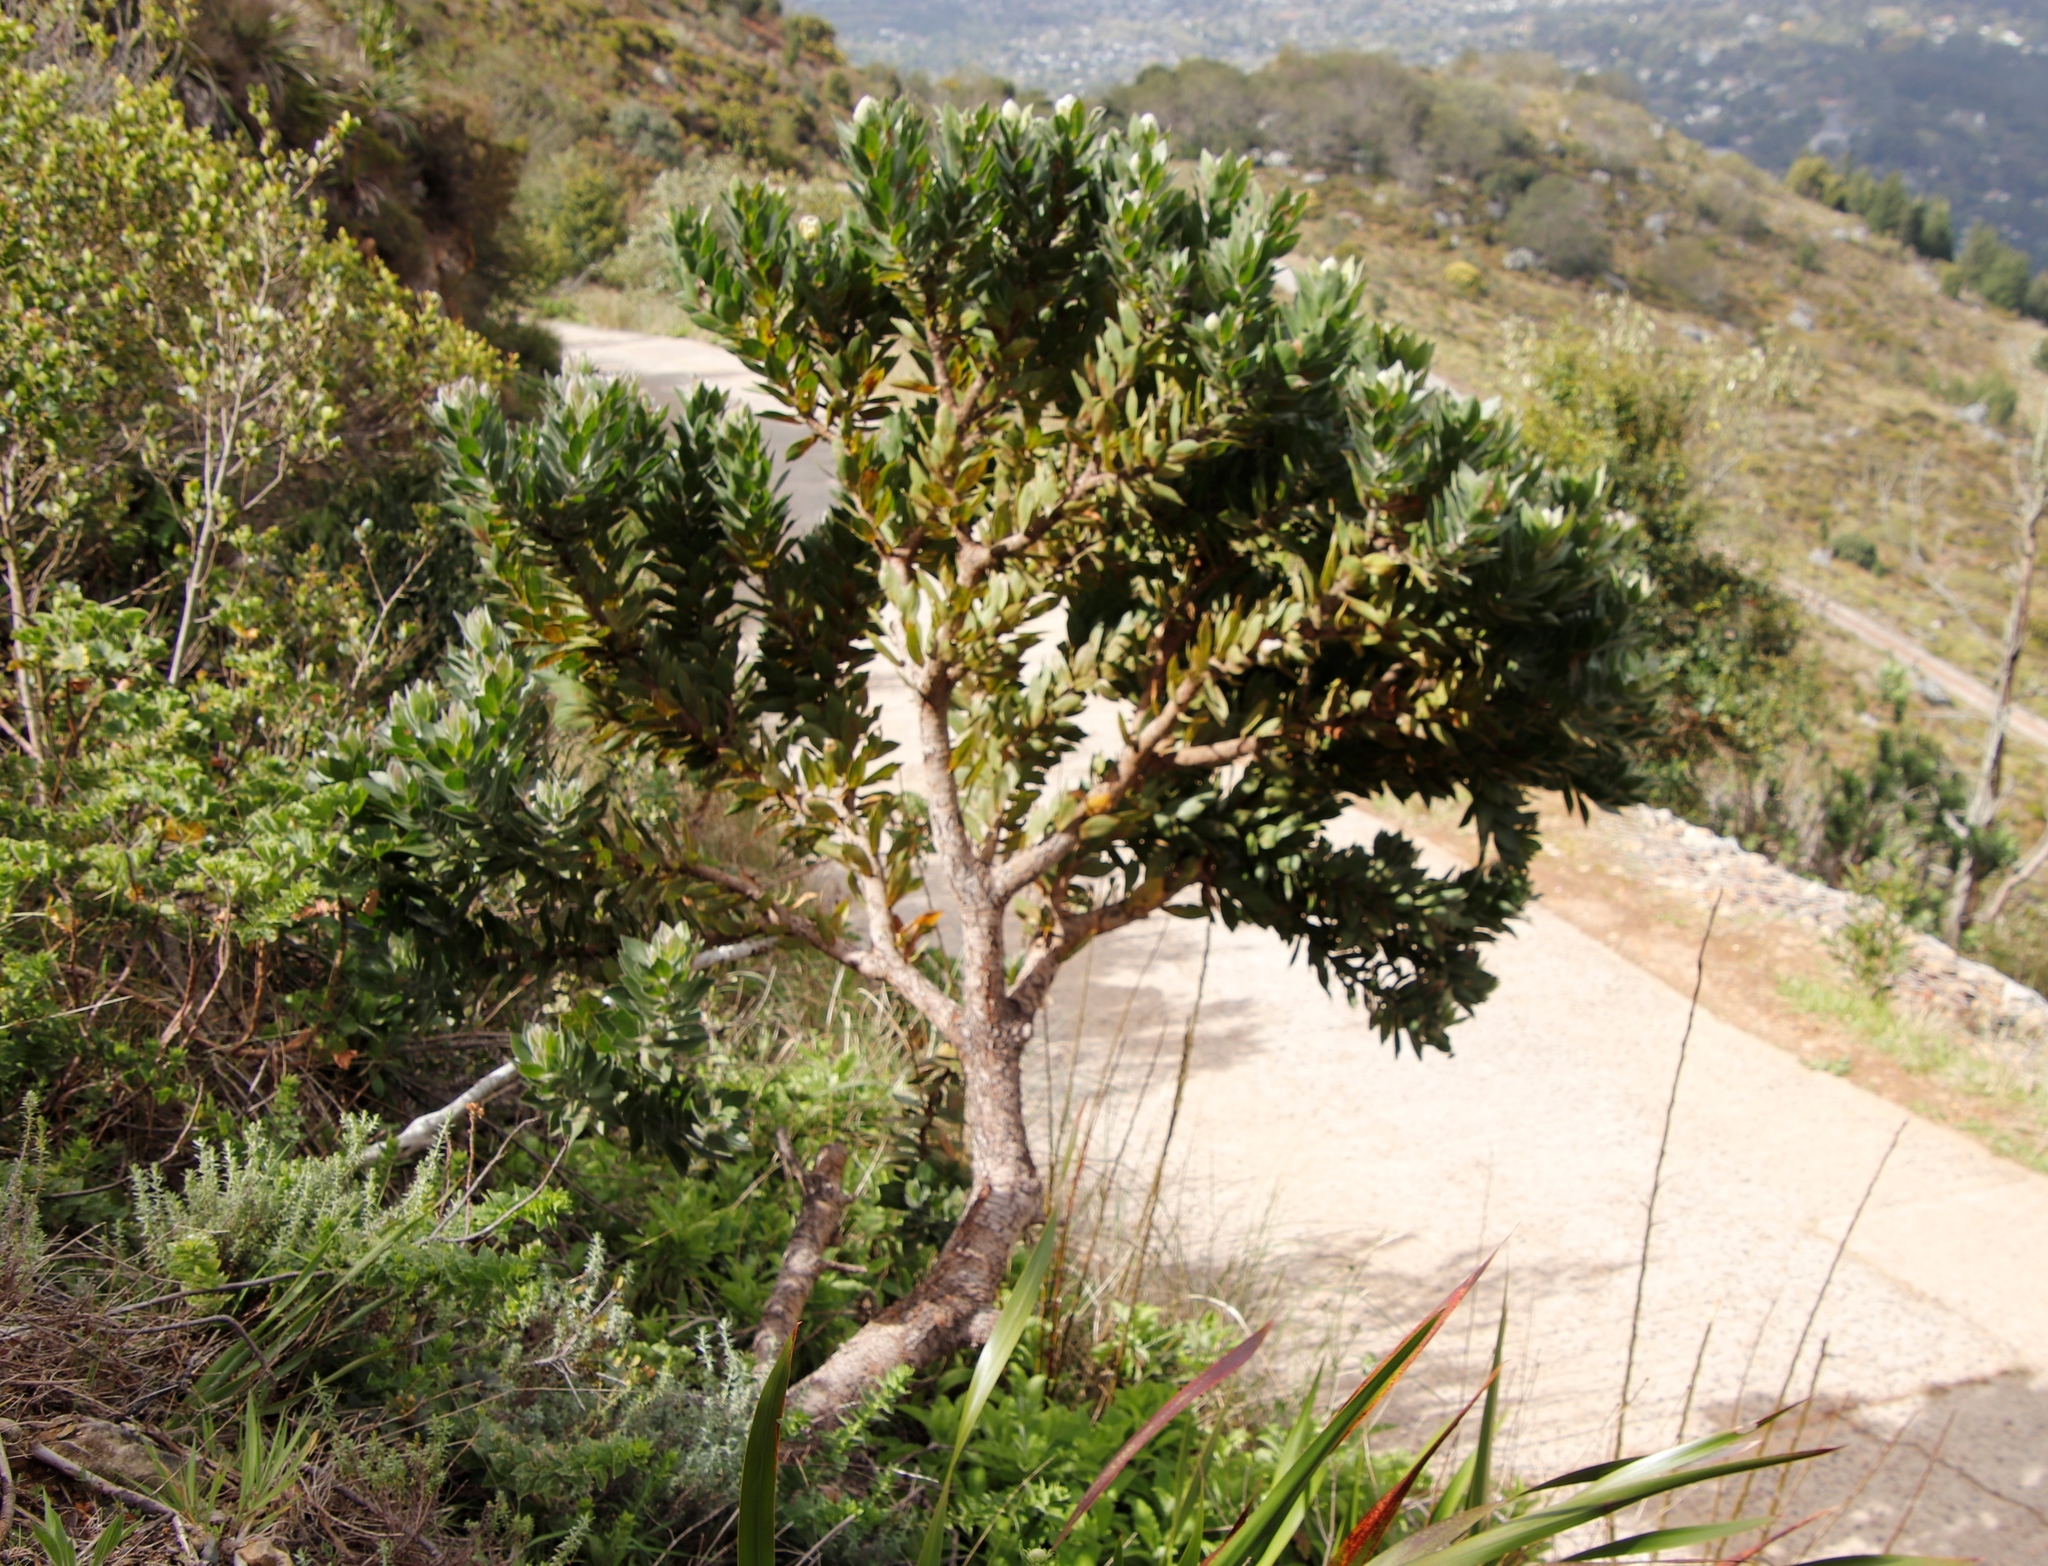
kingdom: Plantae
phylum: Tracheophyta
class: Magnoliopsida
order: Proteales
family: Proteaceae
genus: Leucospermum
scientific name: Leucospermum conocarpodendron
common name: Tree pincushion
